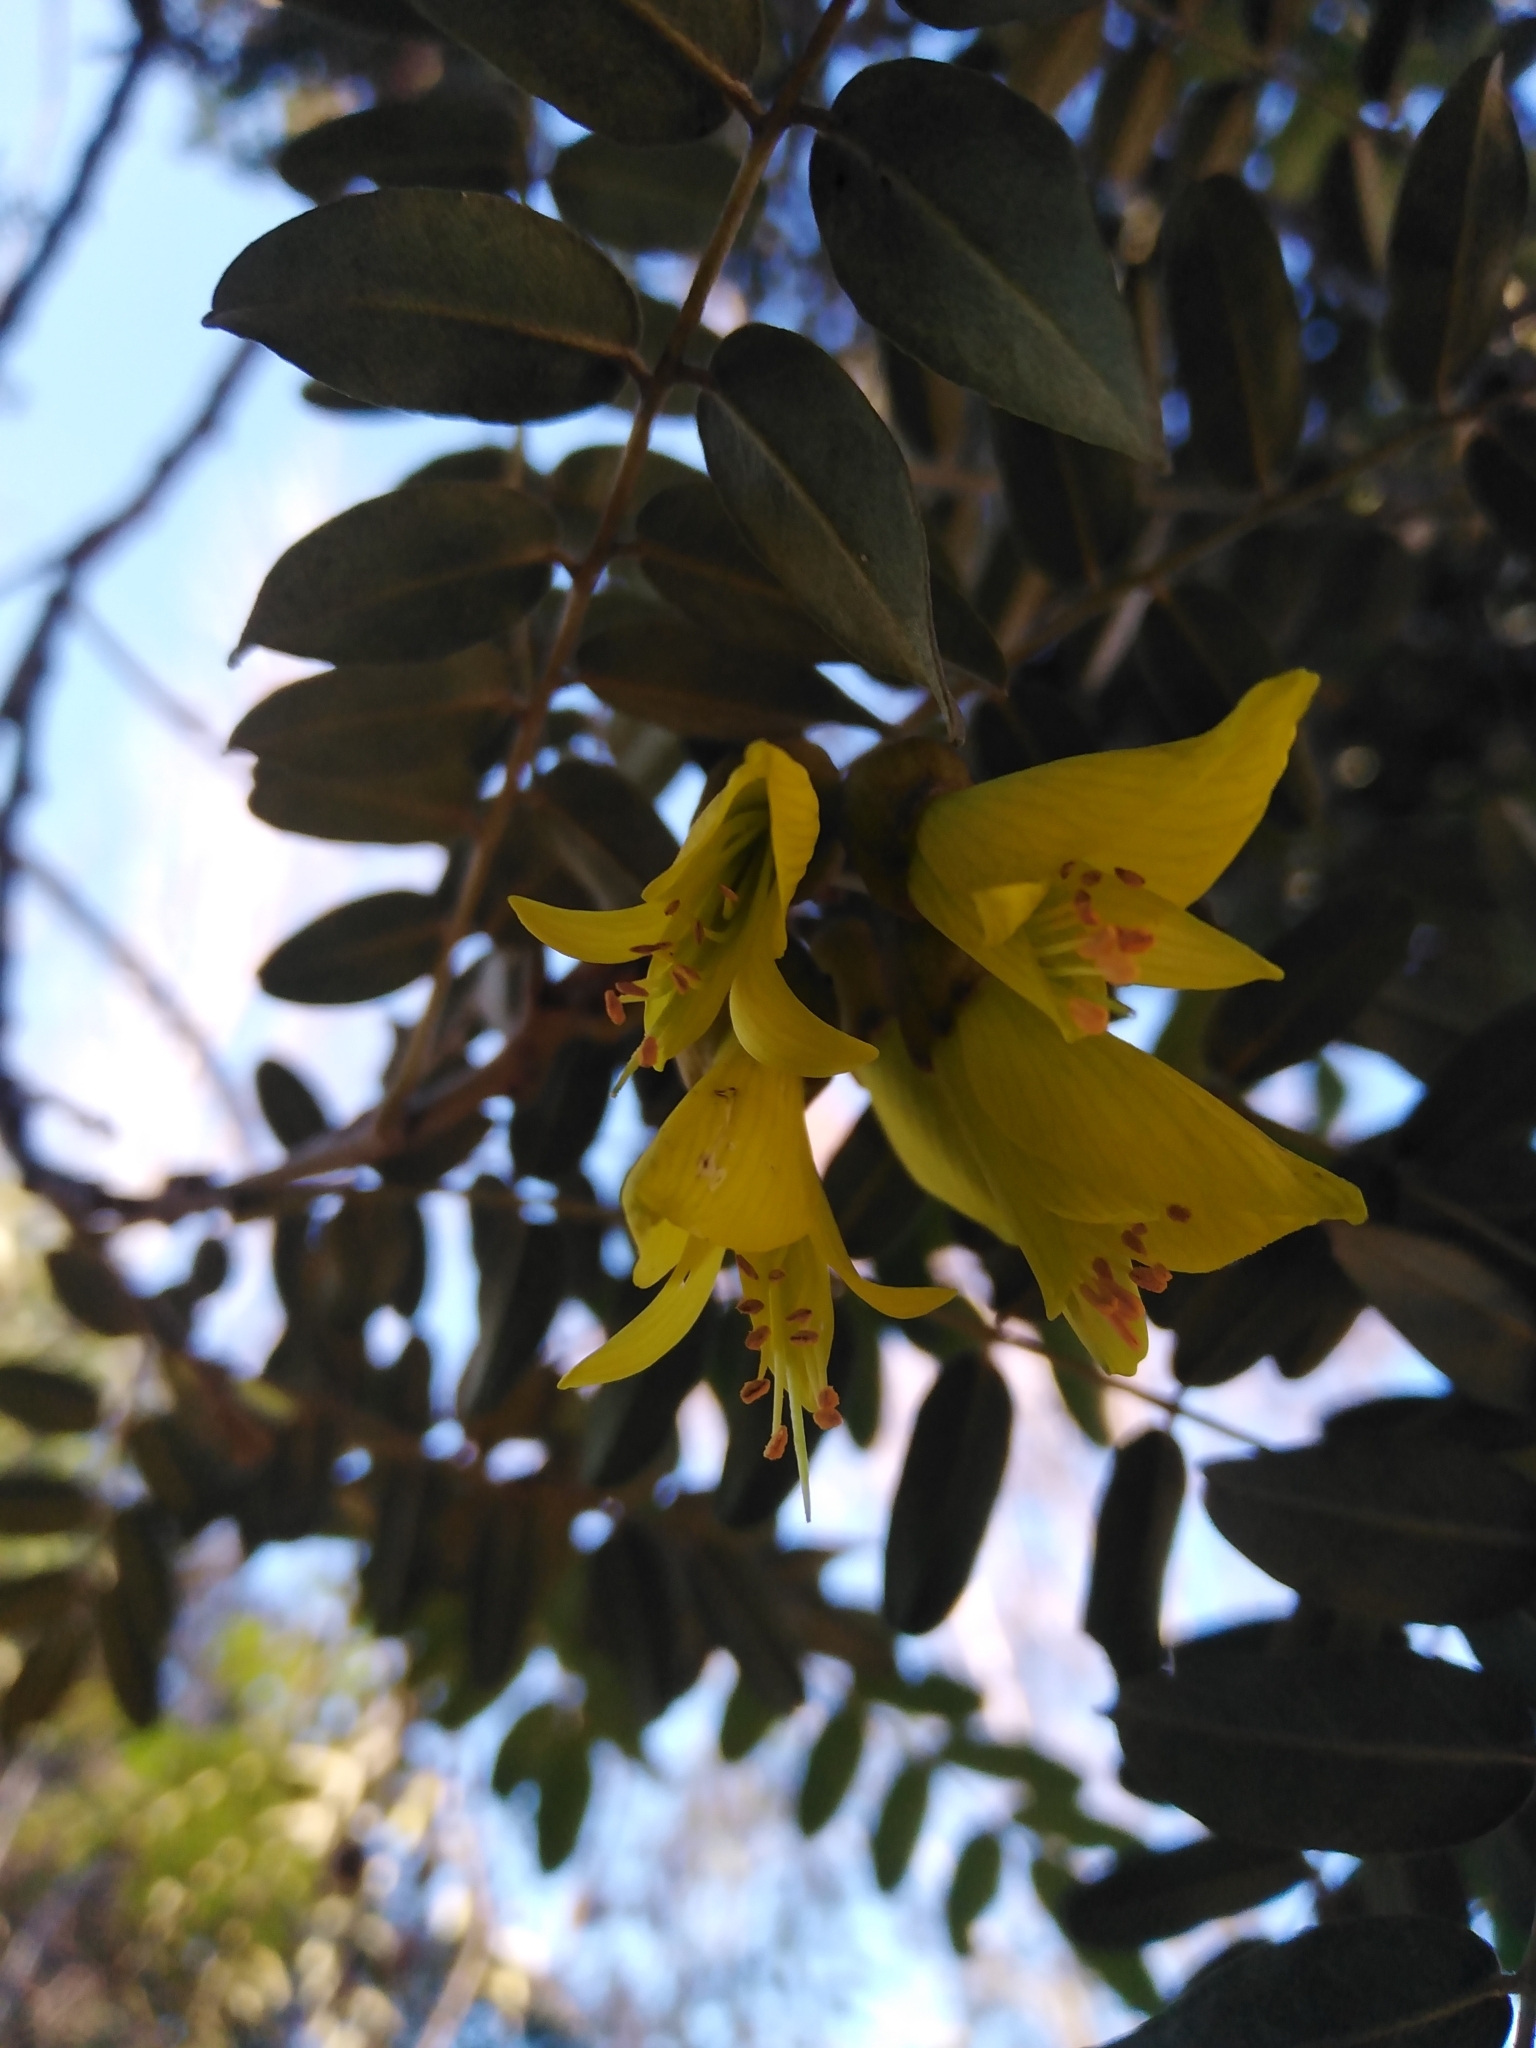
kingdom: Plantae
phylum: Tracheophyta
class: Magnoliopsida
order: Fabales
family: Fabaceae
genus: Sophora
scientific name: Sophora macrocarpa
